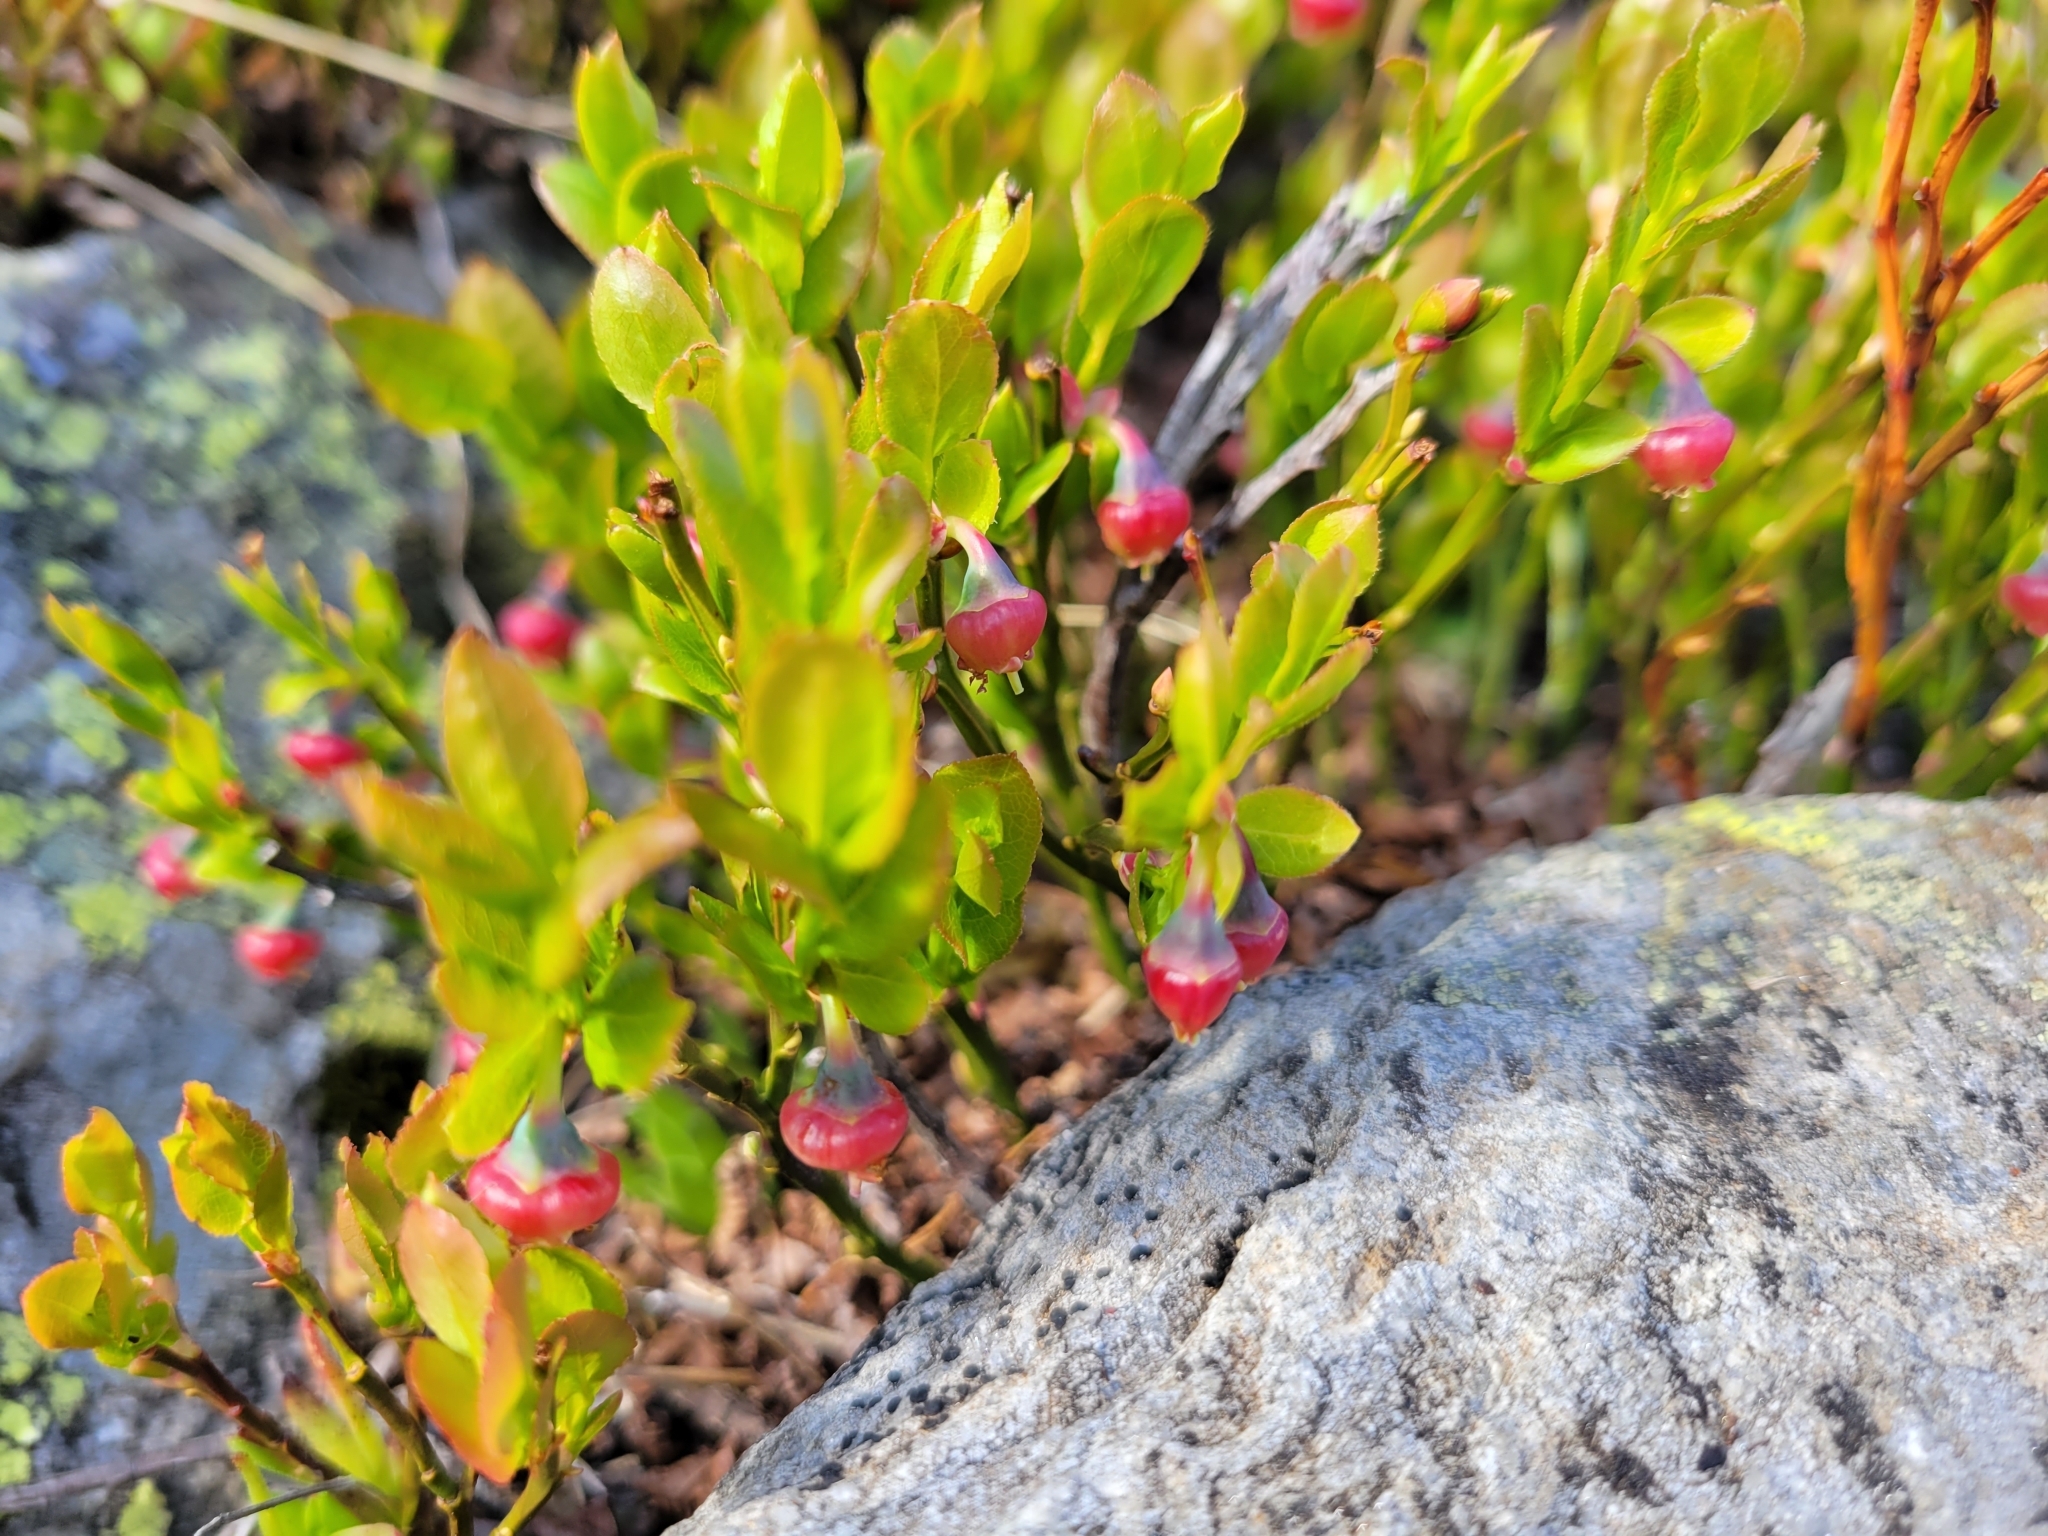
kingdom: Plantae
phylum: Tracheophyta
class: Magnoliopsida
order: Ericales
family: Ericaceae
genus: Vaccinium
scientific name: Vaccinium myrtillus
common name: Bilberry
